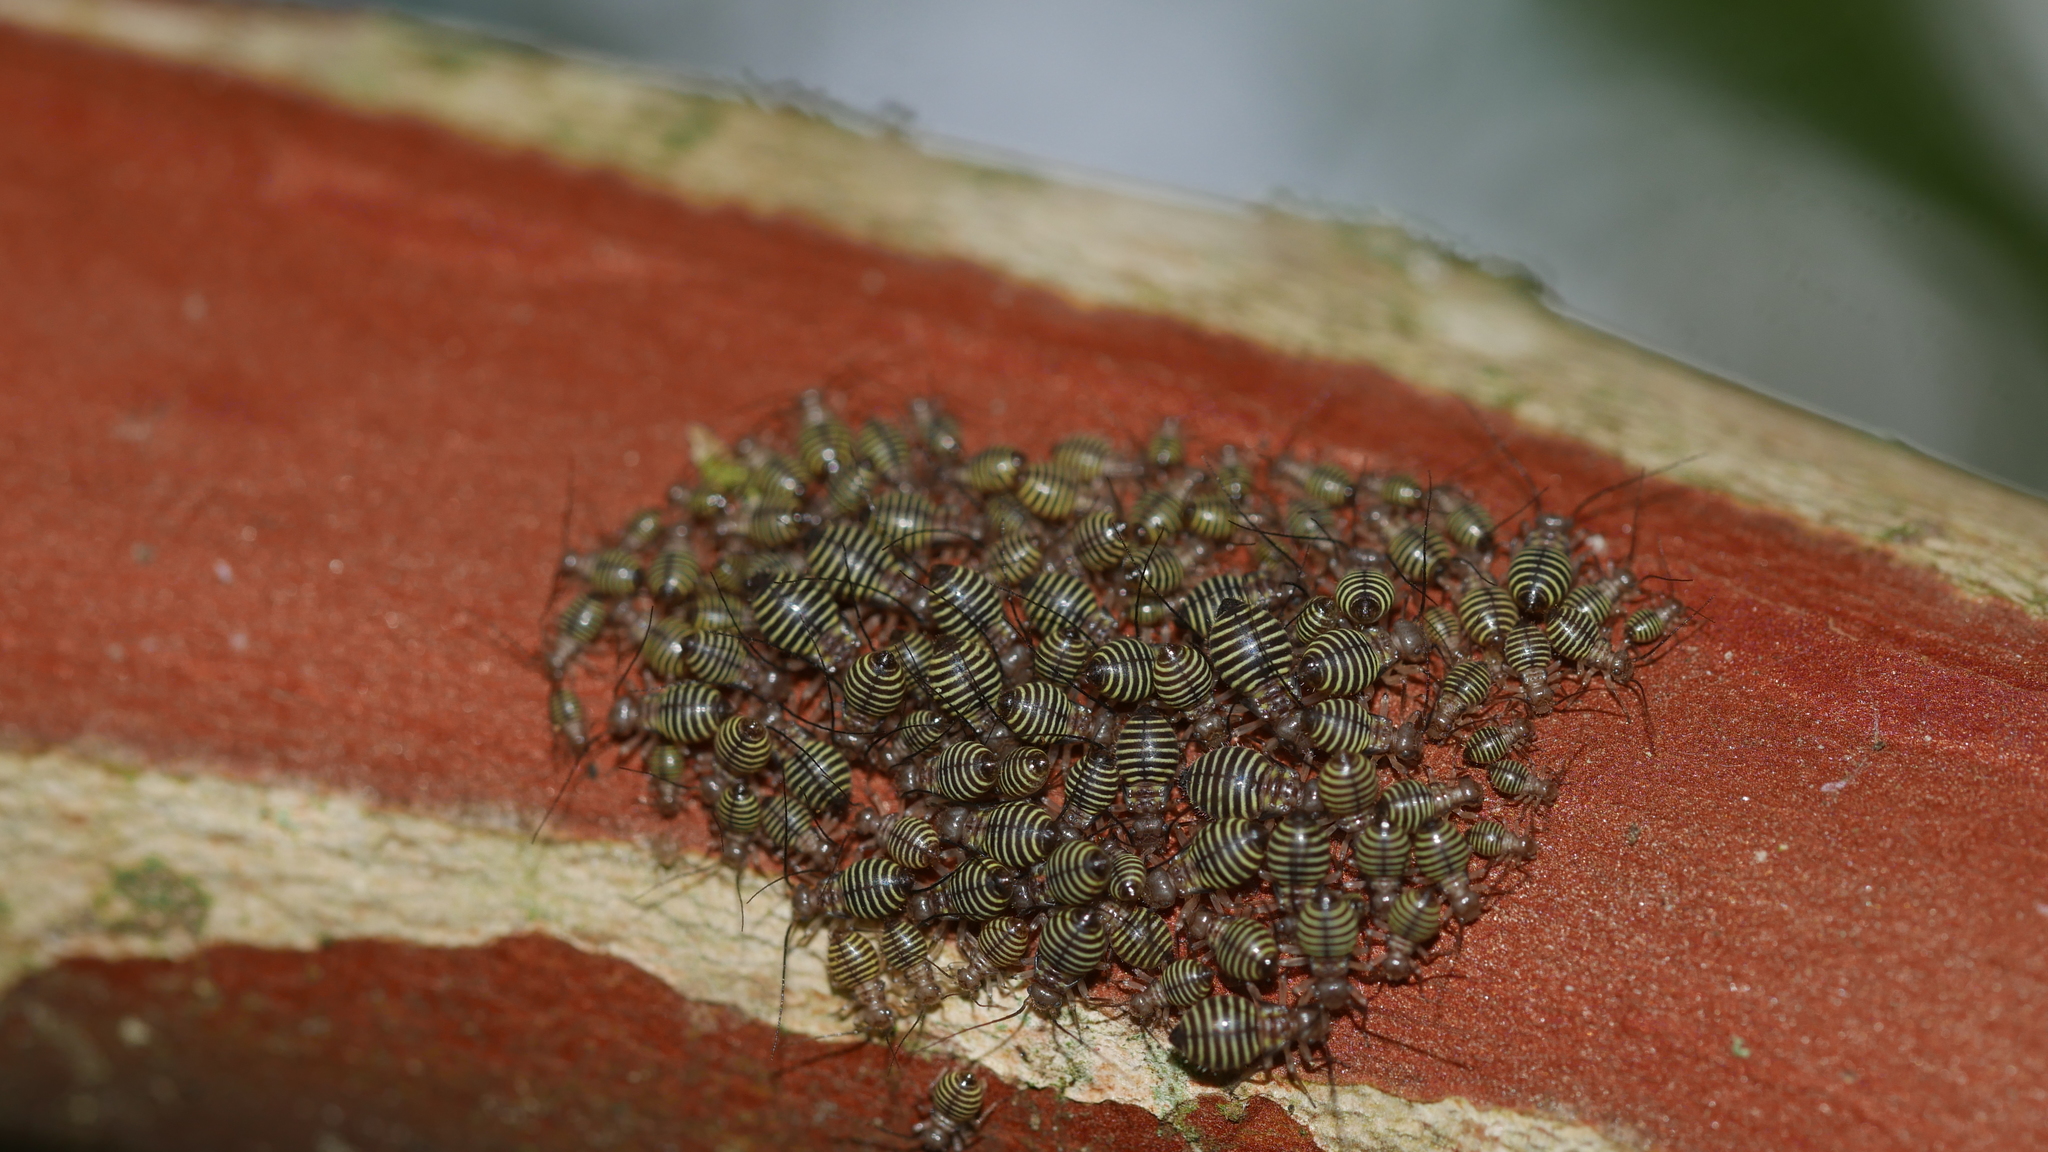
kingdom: Animalia
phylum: Arthropoda
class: Insecta
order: Psocodea
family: Psocidae
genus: Cerastipsocus
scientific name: Cerastipsocus venosus
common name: Tree cattle
